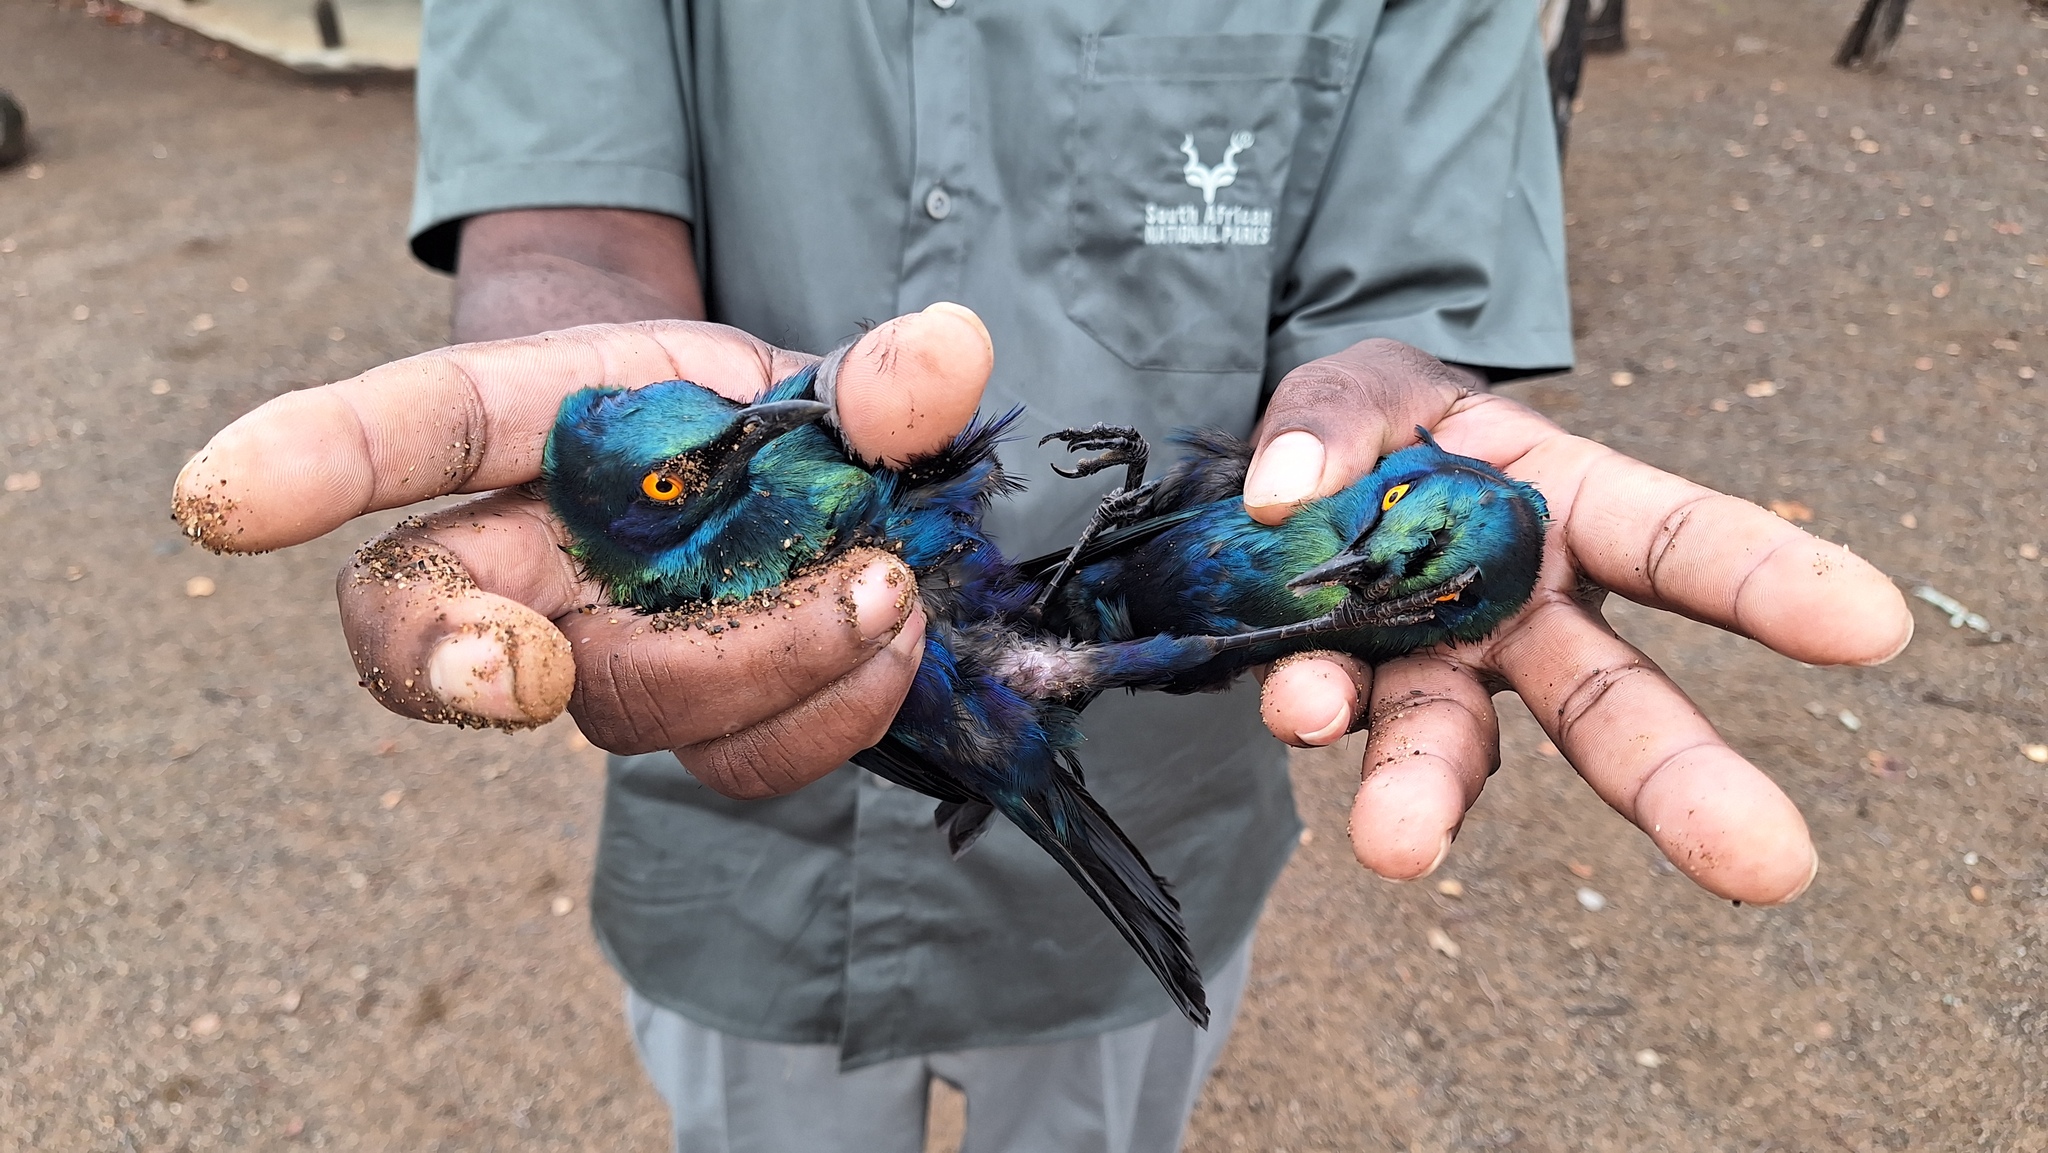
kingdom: Animalia
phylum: Chordata
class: Aves
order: Passeriformes
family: Sturnidae
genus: Lamprotornis
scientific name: Lamprotornis chalybaeus
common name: Greater blue-eared starling
